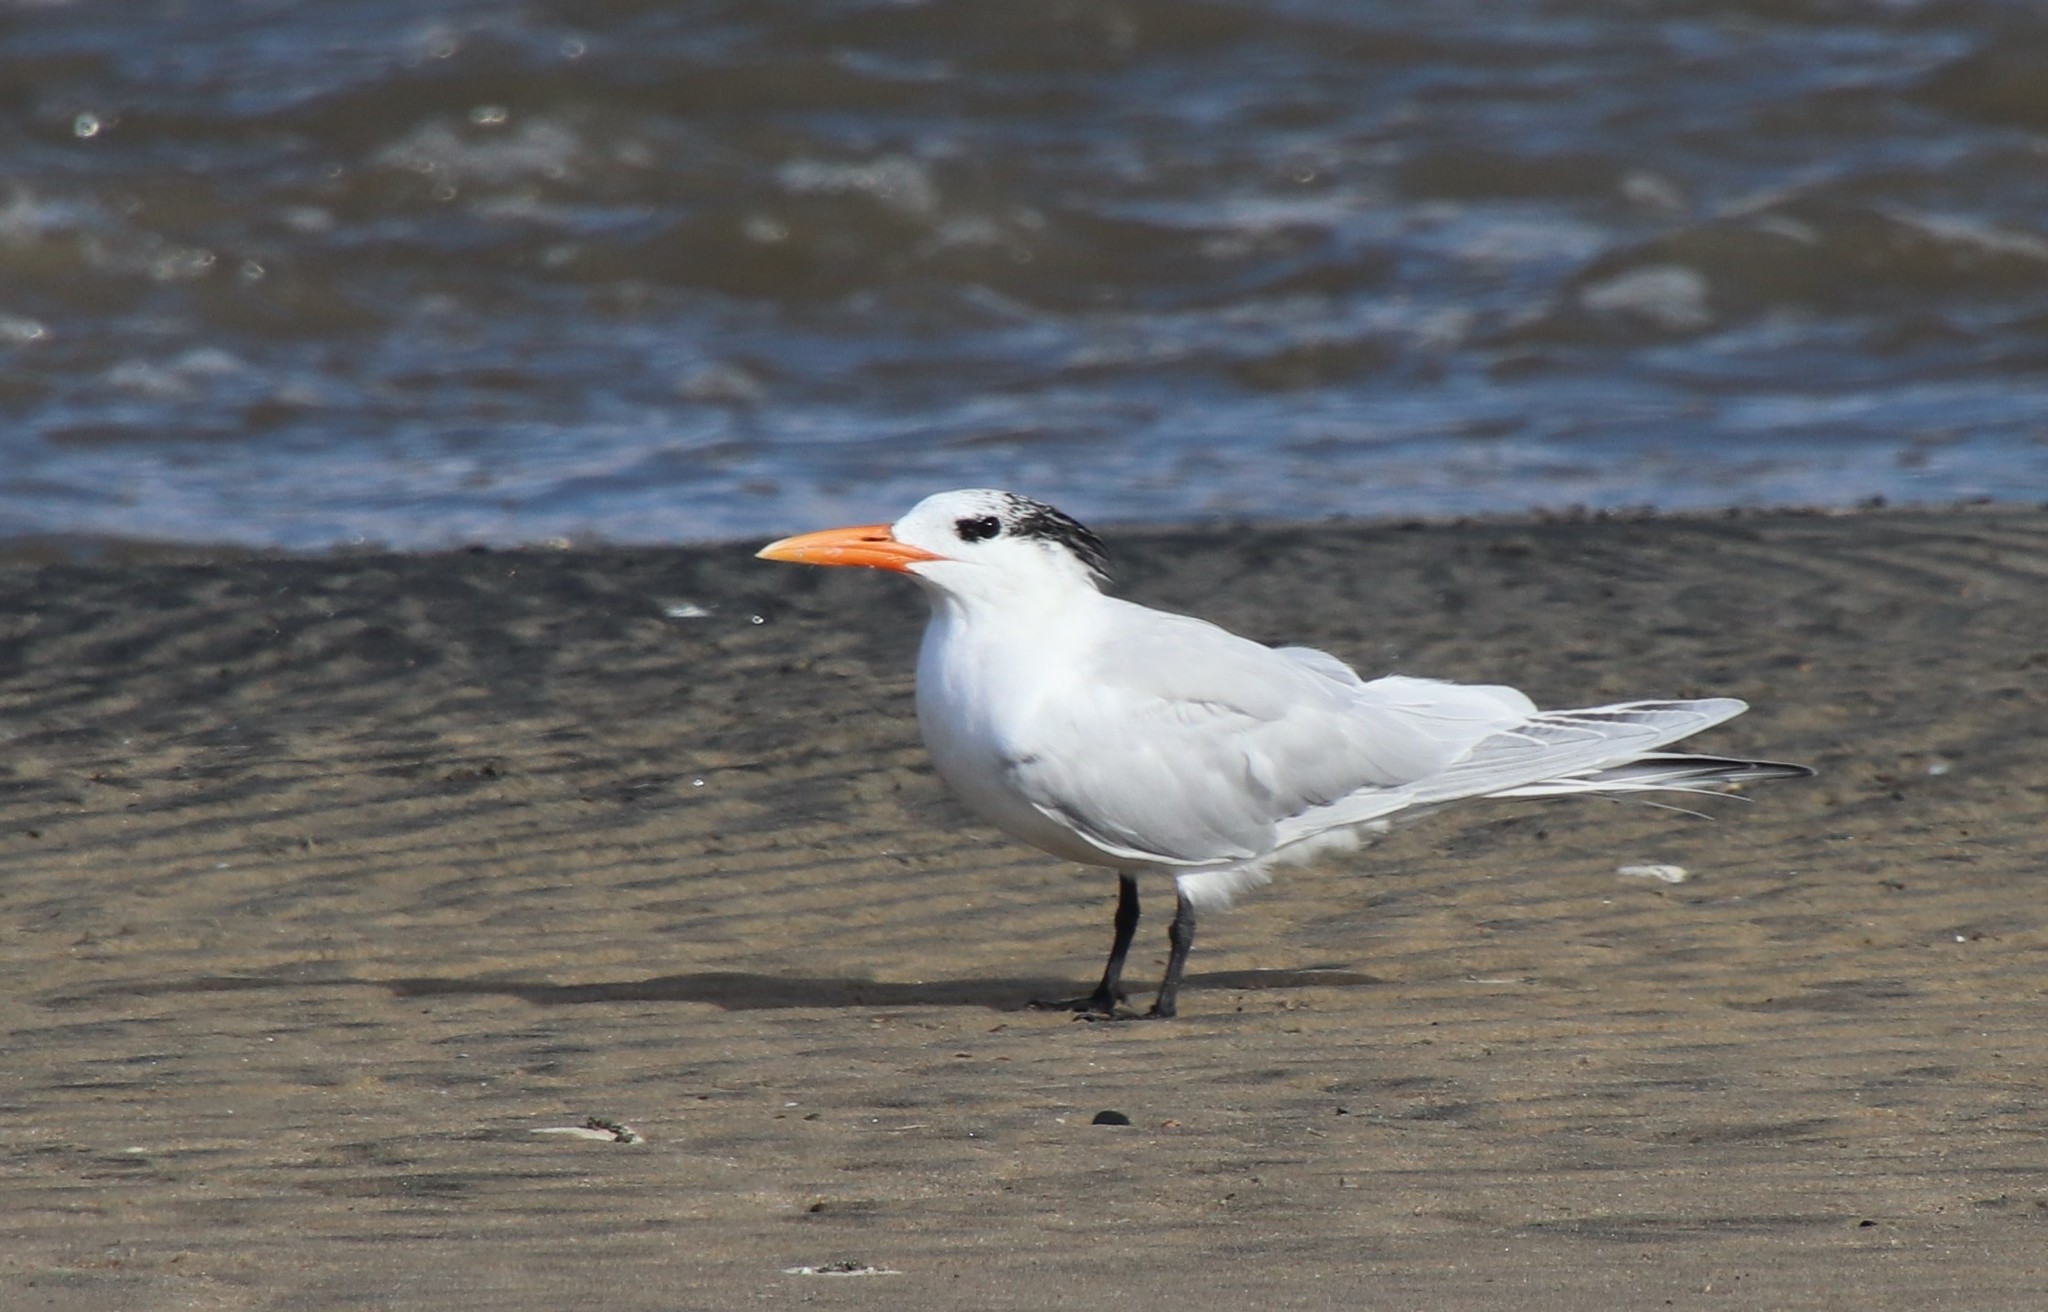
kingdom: Animalia
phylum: Chordata
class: Aves
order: Charadriiformes
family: Laridae
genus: Thalasseus
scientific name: Thalasseus maximus
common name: Royal tern
